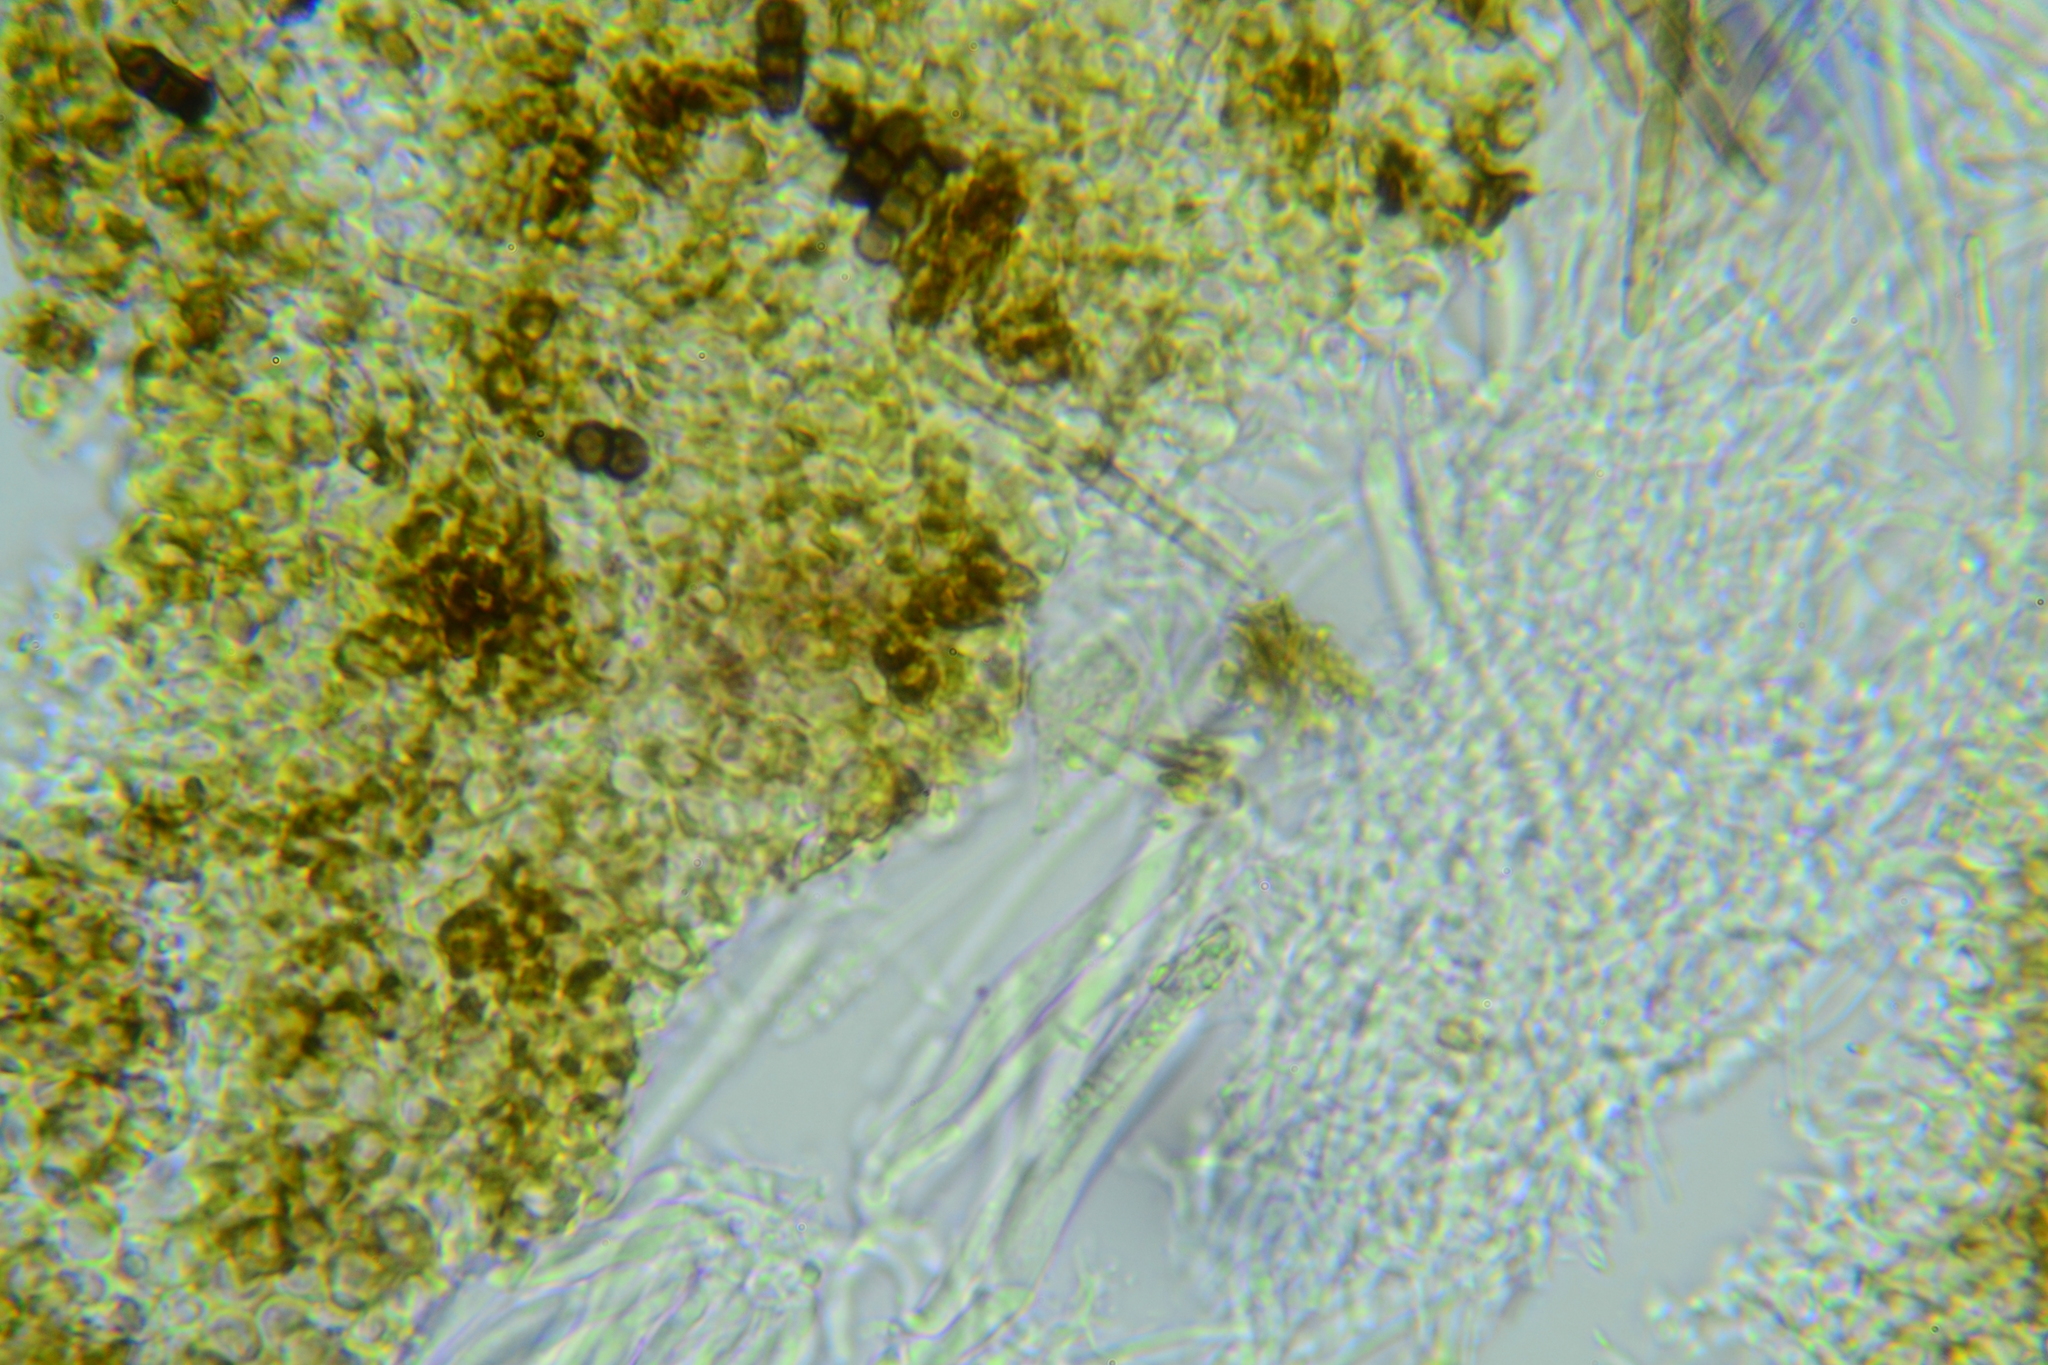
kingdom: Fungi
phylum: Ascomycota
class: Leotiomycetes
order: Helotiales
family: Lachnaceae
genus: Trichopeziza
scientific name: Trichopeziza
